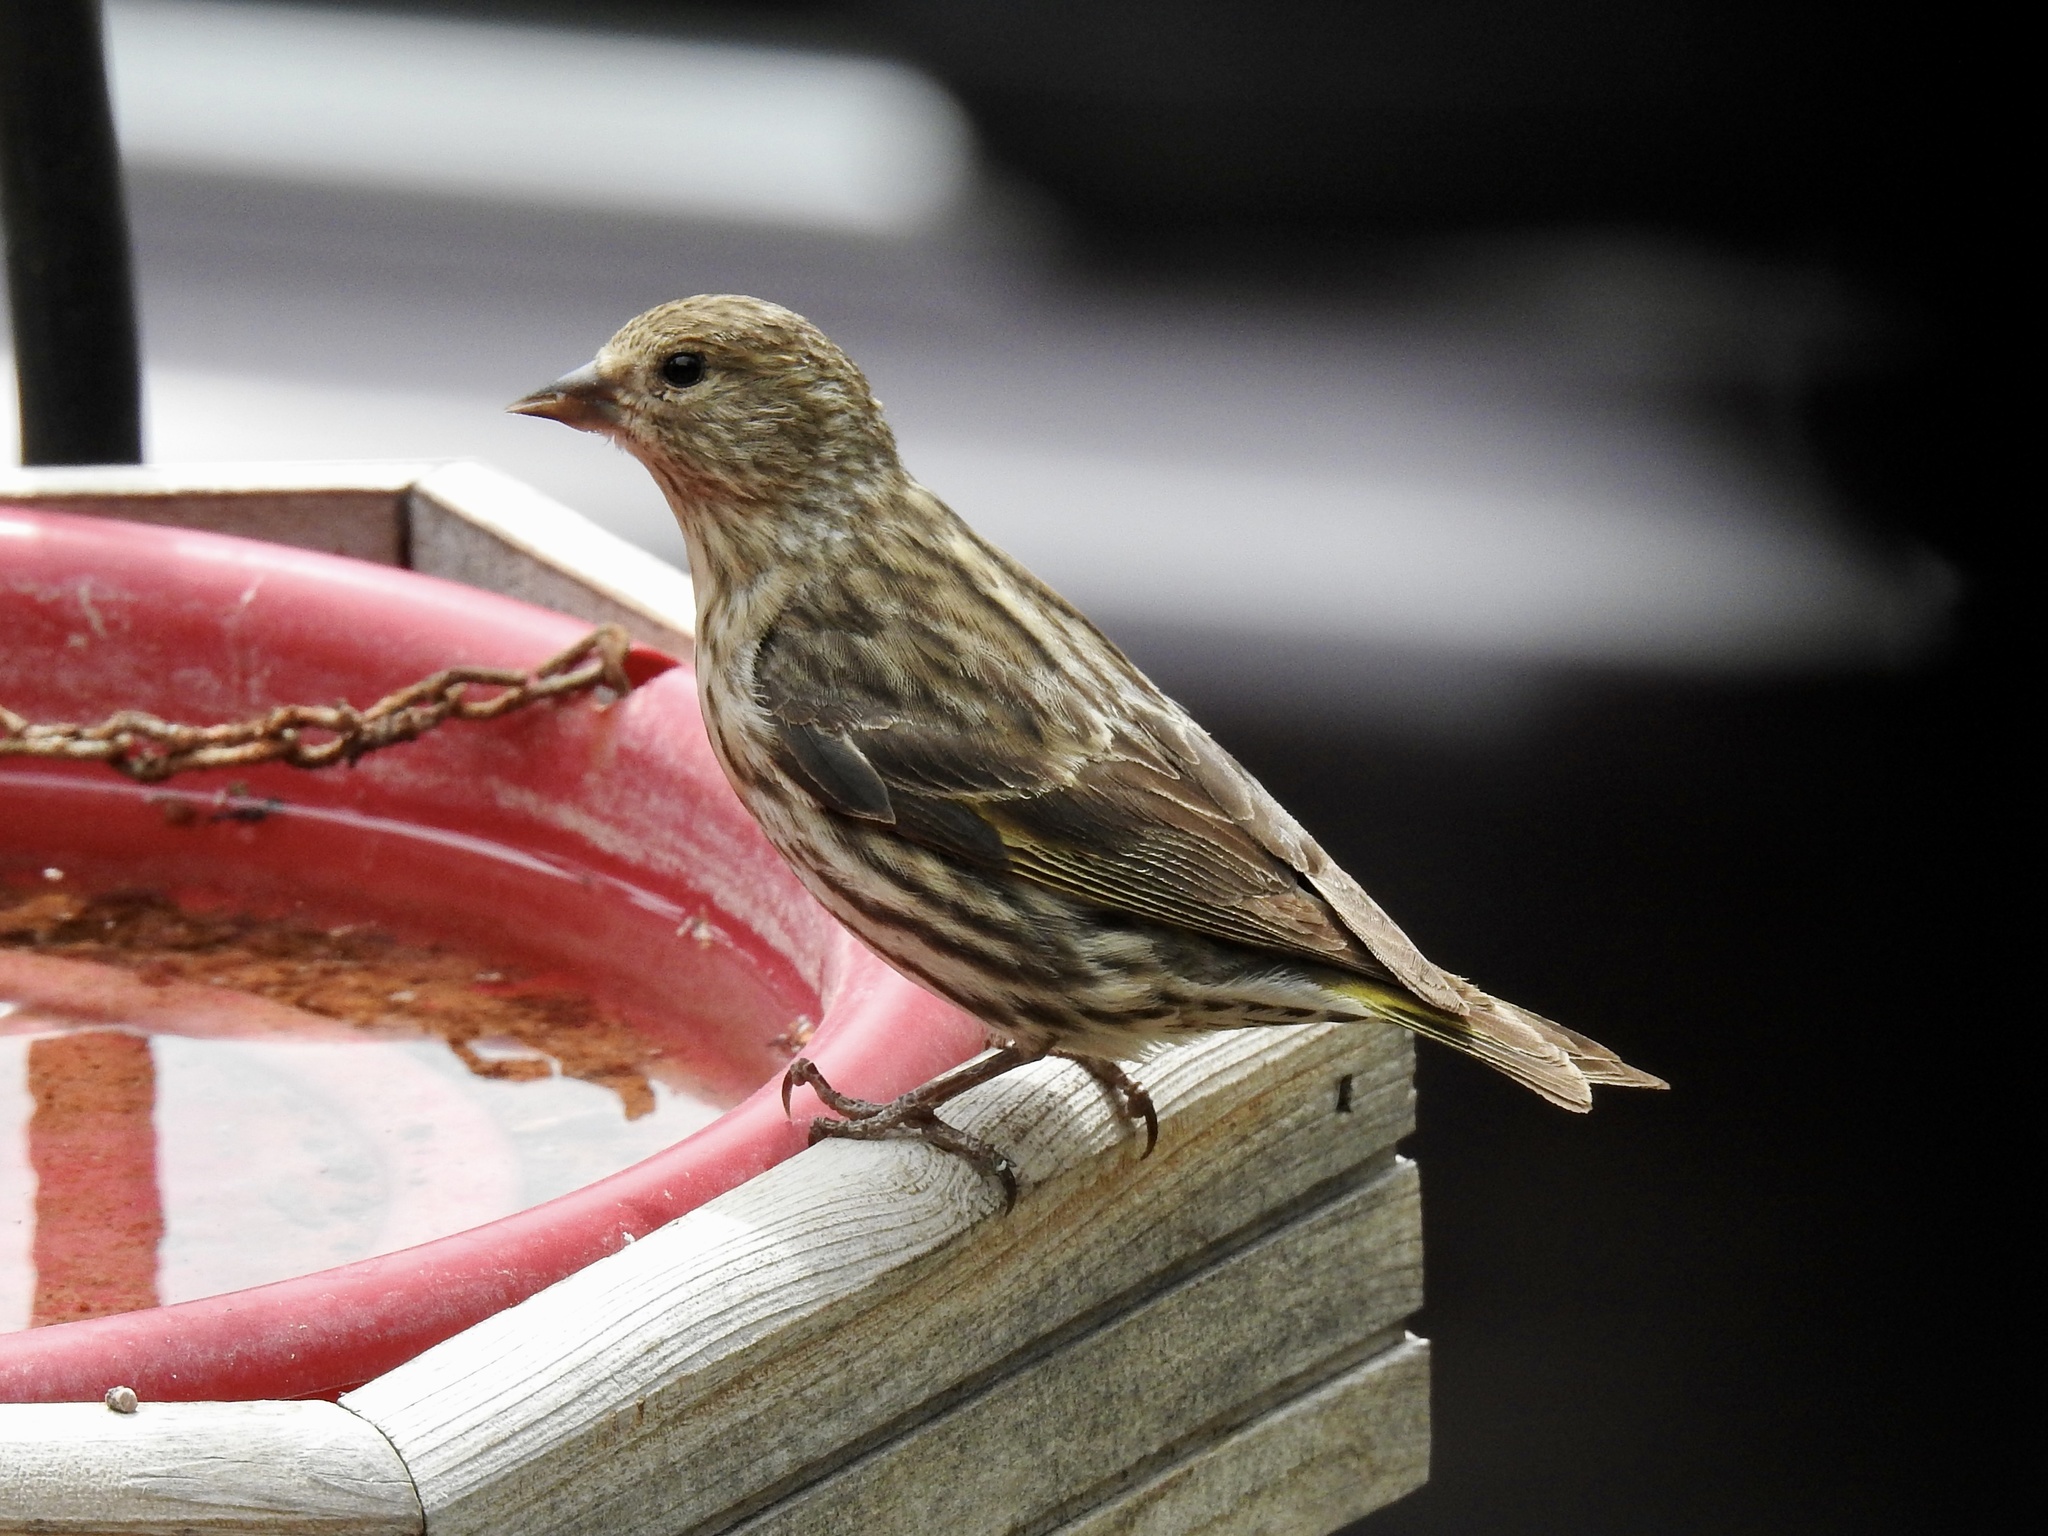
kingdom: Animalia
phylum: Chordata
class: Aves
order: Passeriformes
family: Fringillidae
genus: Spinus
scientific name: Spinus pinus
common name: Pine siskin
